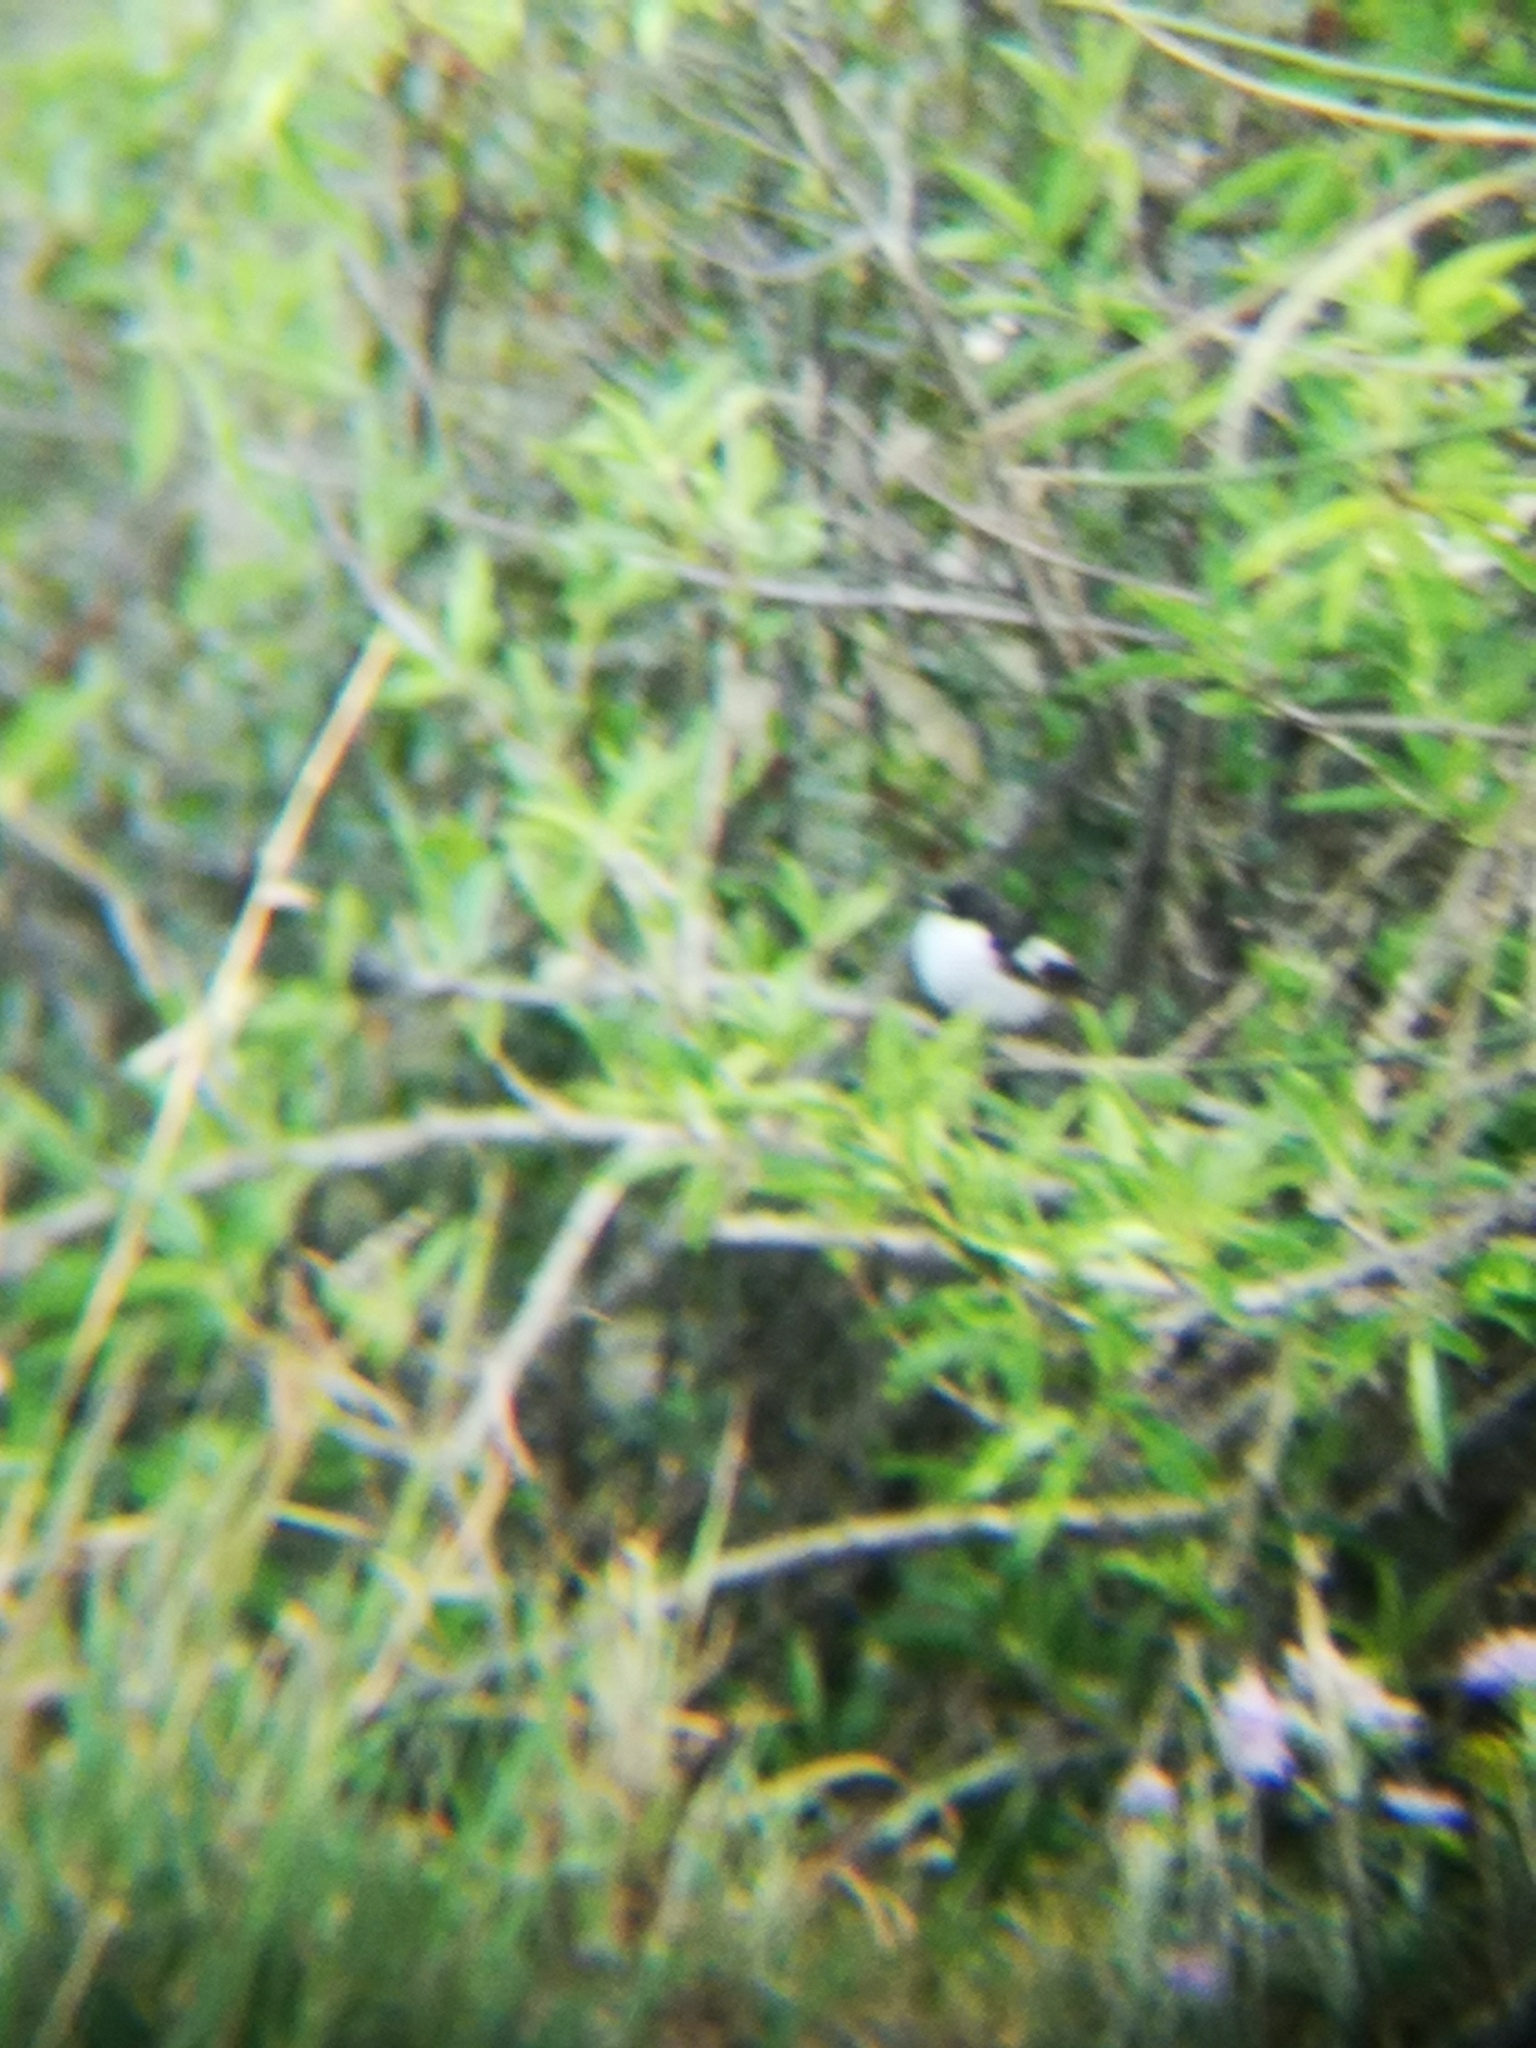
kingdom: Animalia
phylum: Chordata
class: Aves
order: Passeriformes
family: Muscicapidae
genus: Ficedula
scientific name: Ficedula hypoleuca
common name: European pied flycatcher
